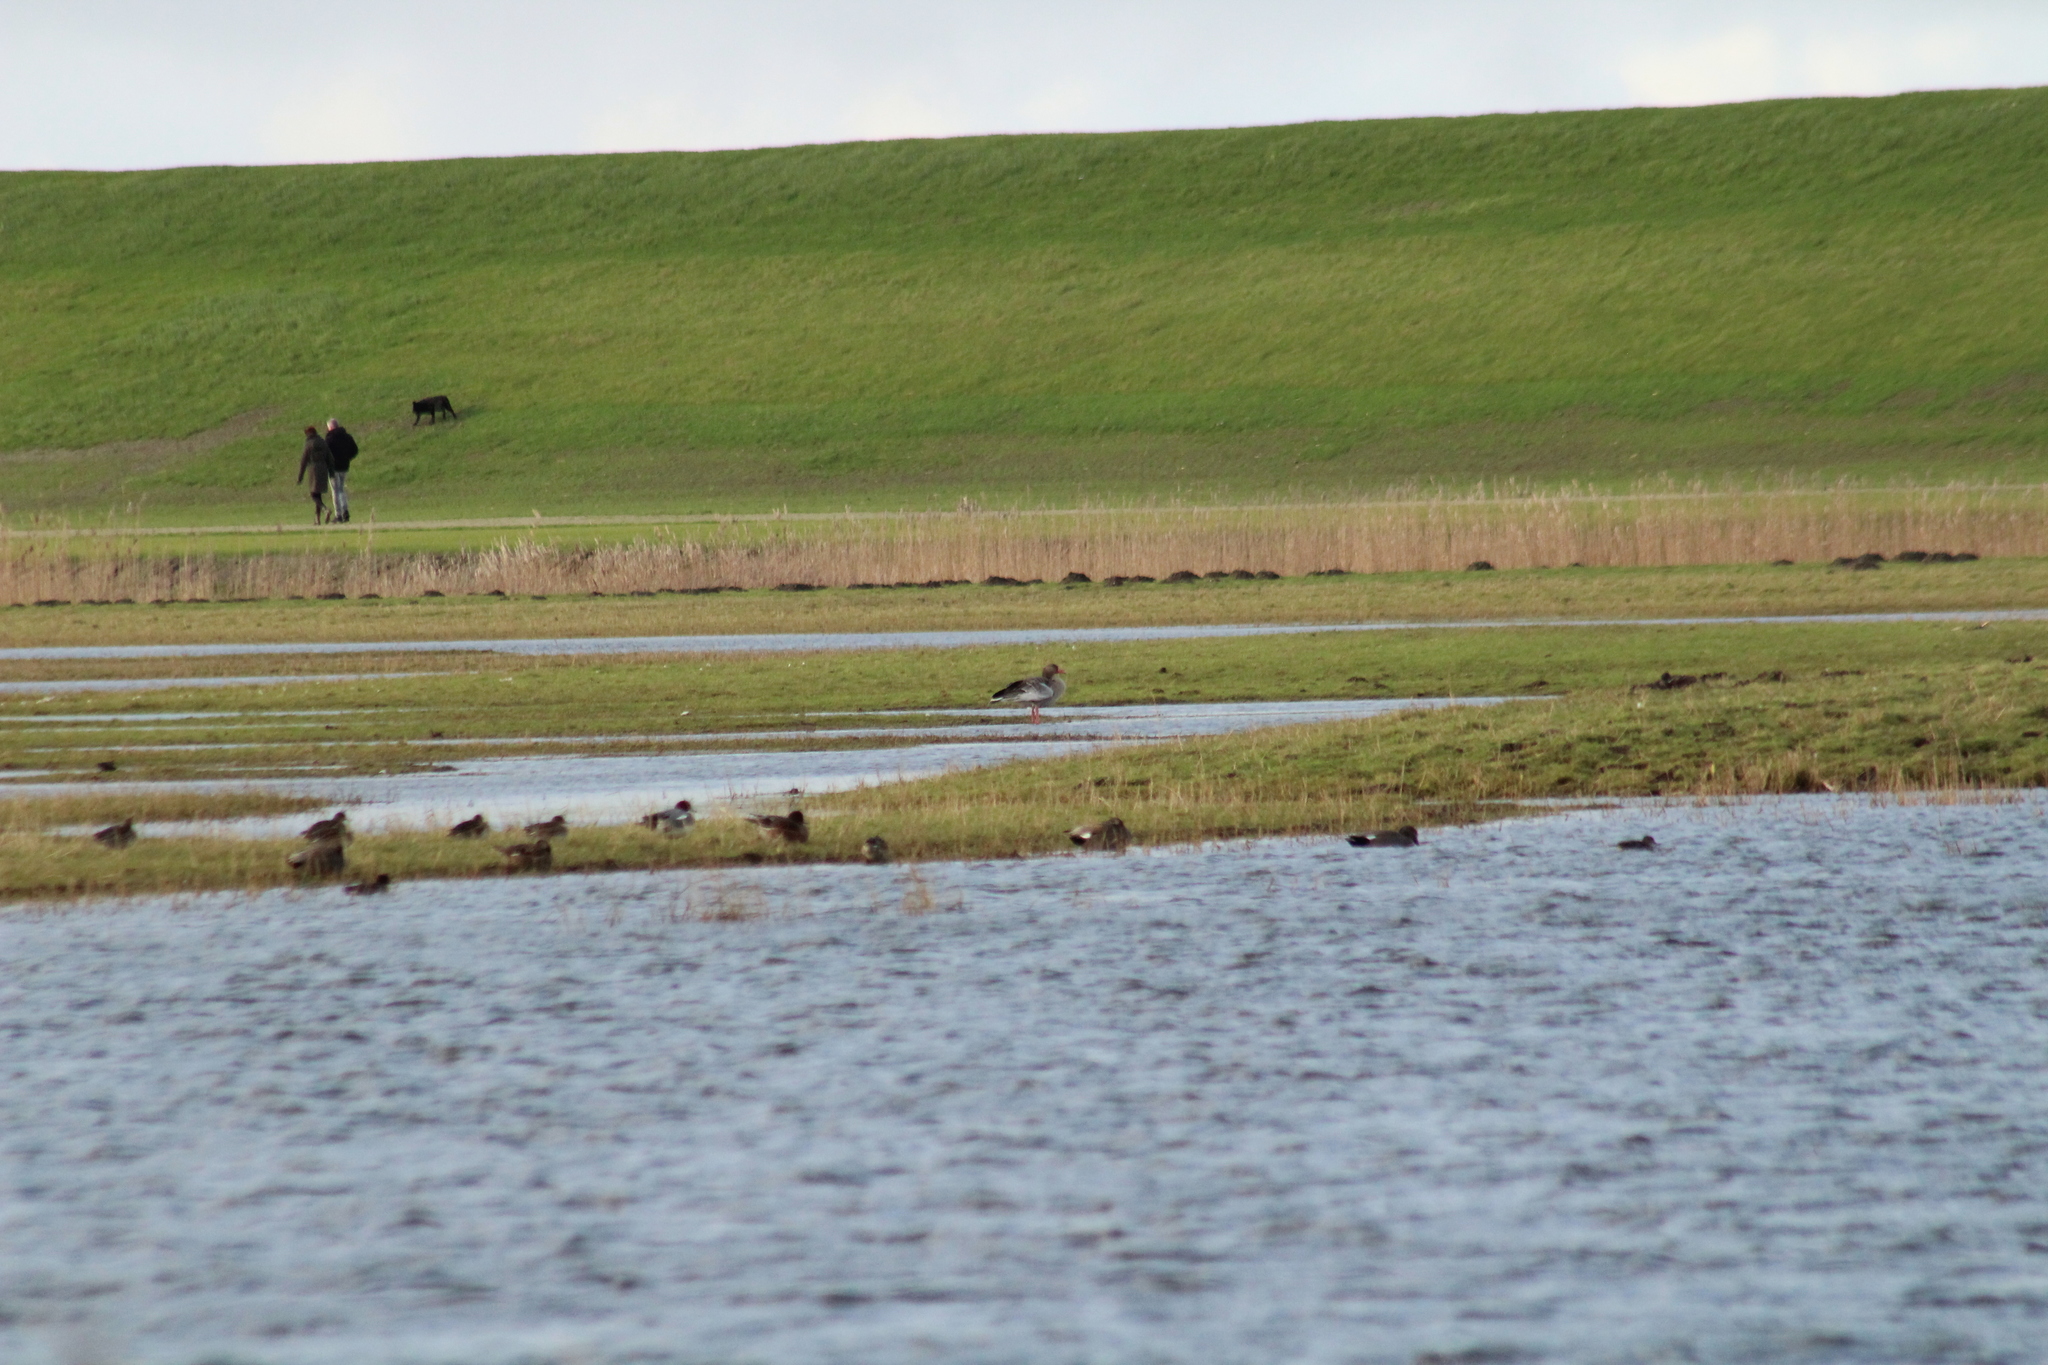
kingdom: Animalia
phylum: Chordata
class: Aves
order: Anseriformes
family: Anatidae
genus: Anser
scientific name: Anser anser
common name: Greylag goose
